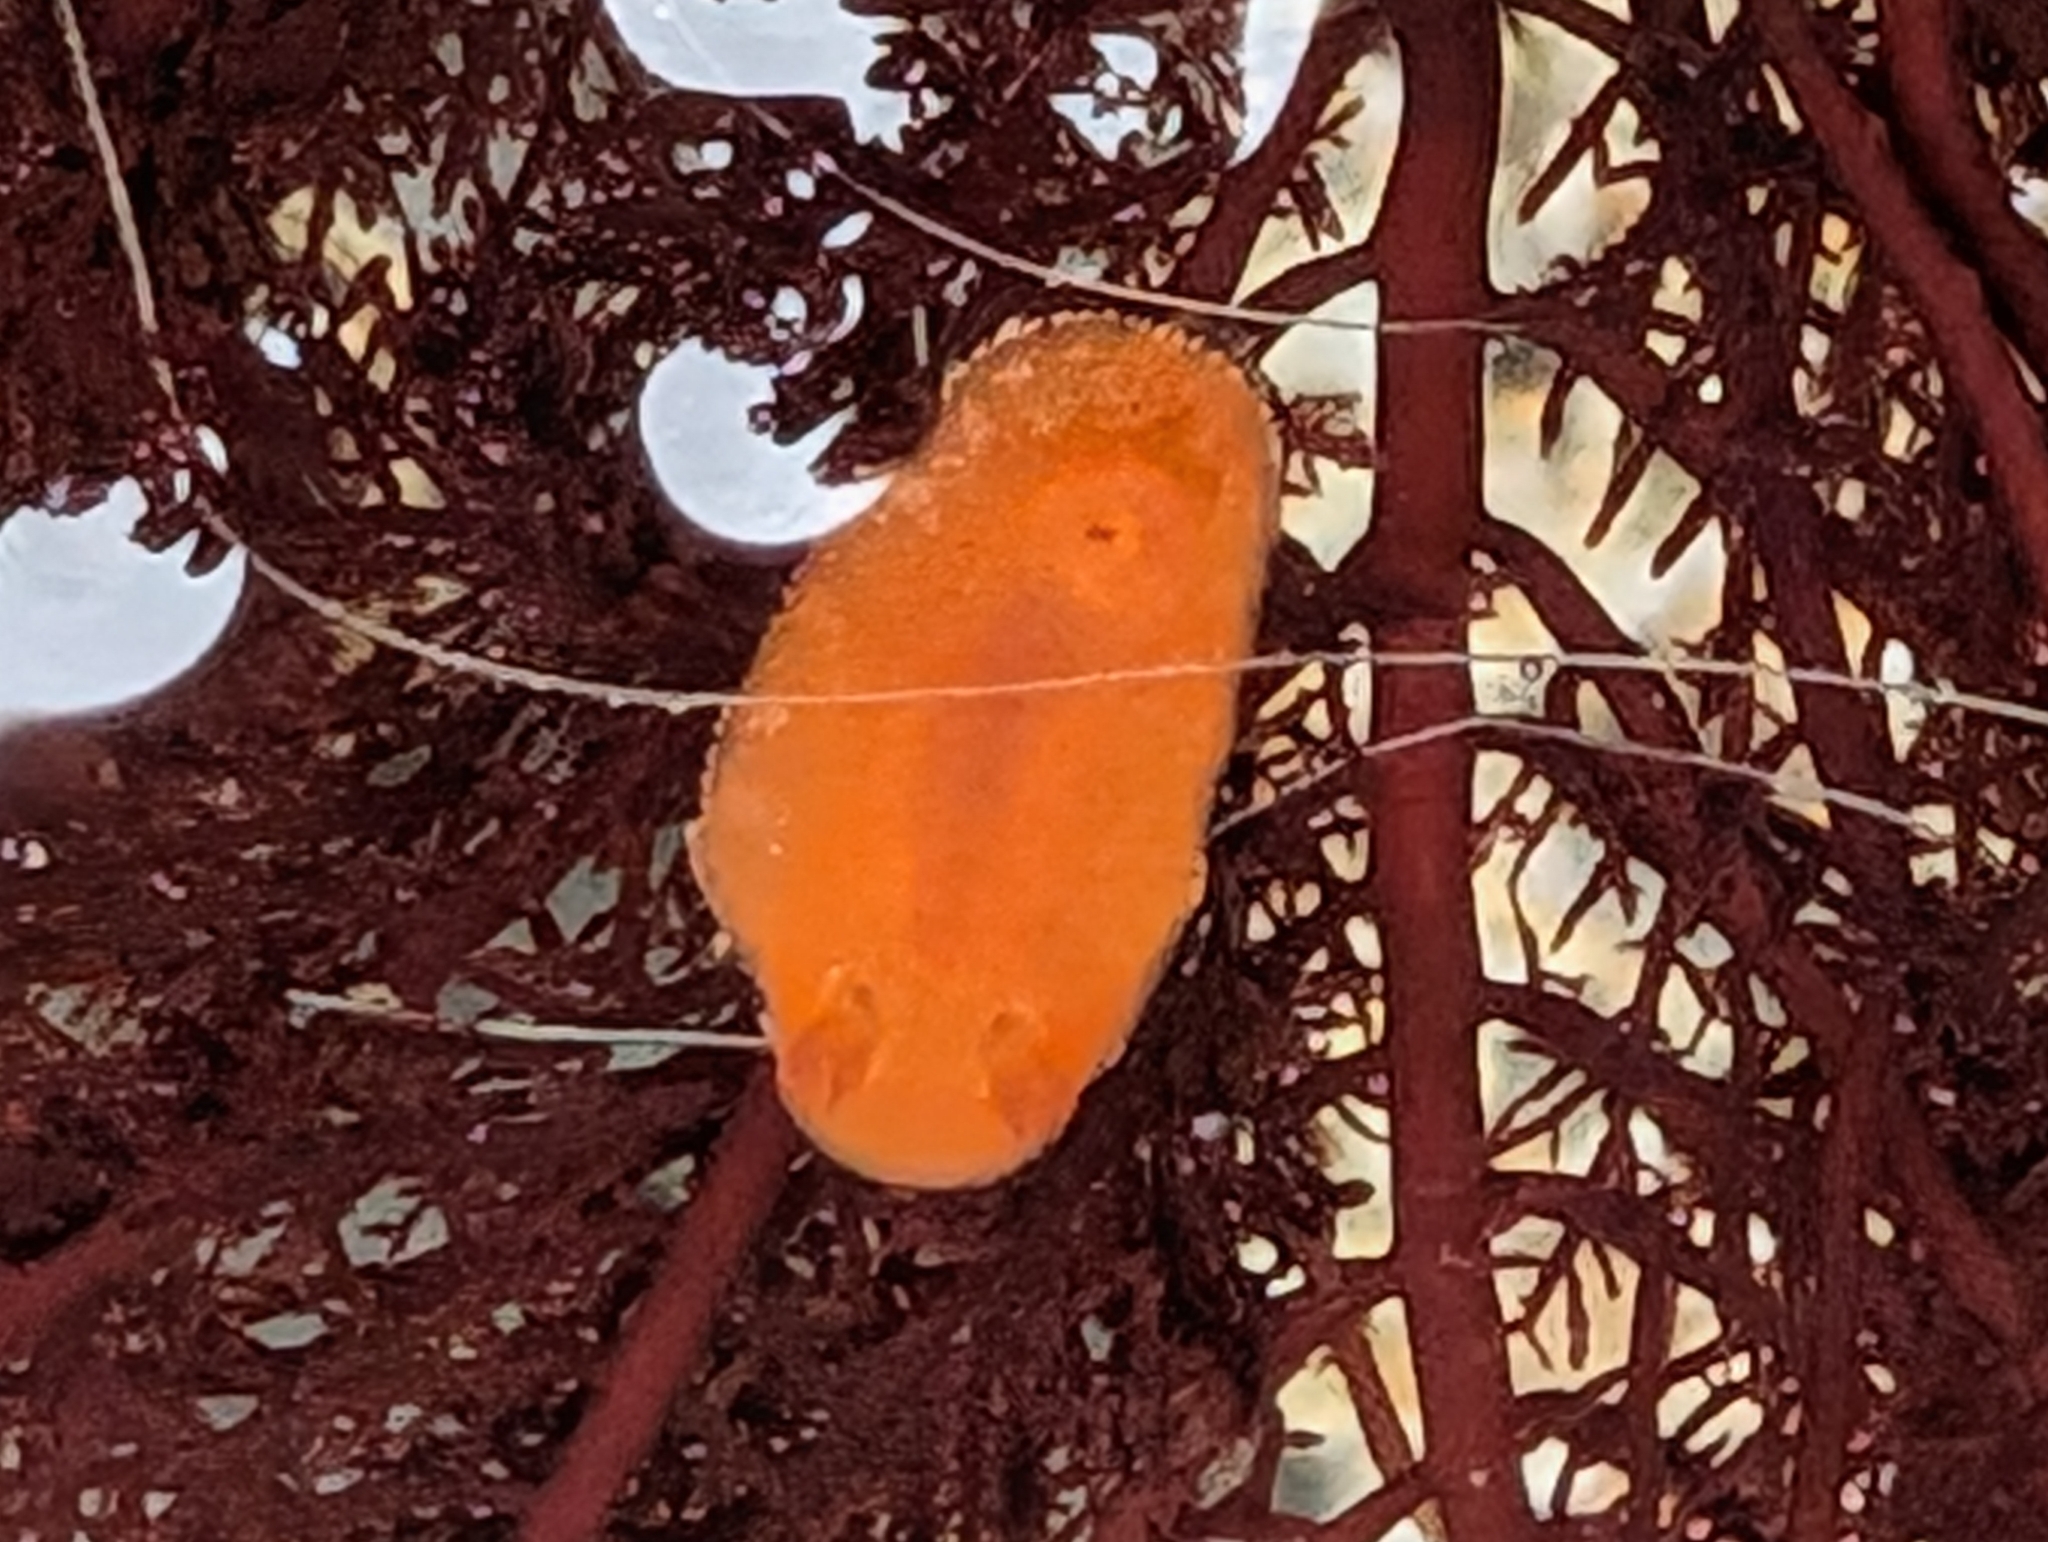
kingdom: Animalia
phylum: Mollusca
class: Gastropoda
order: Nudibranchia
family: Discodorididae
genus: Rostanga
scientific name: Rostanga pulchra
